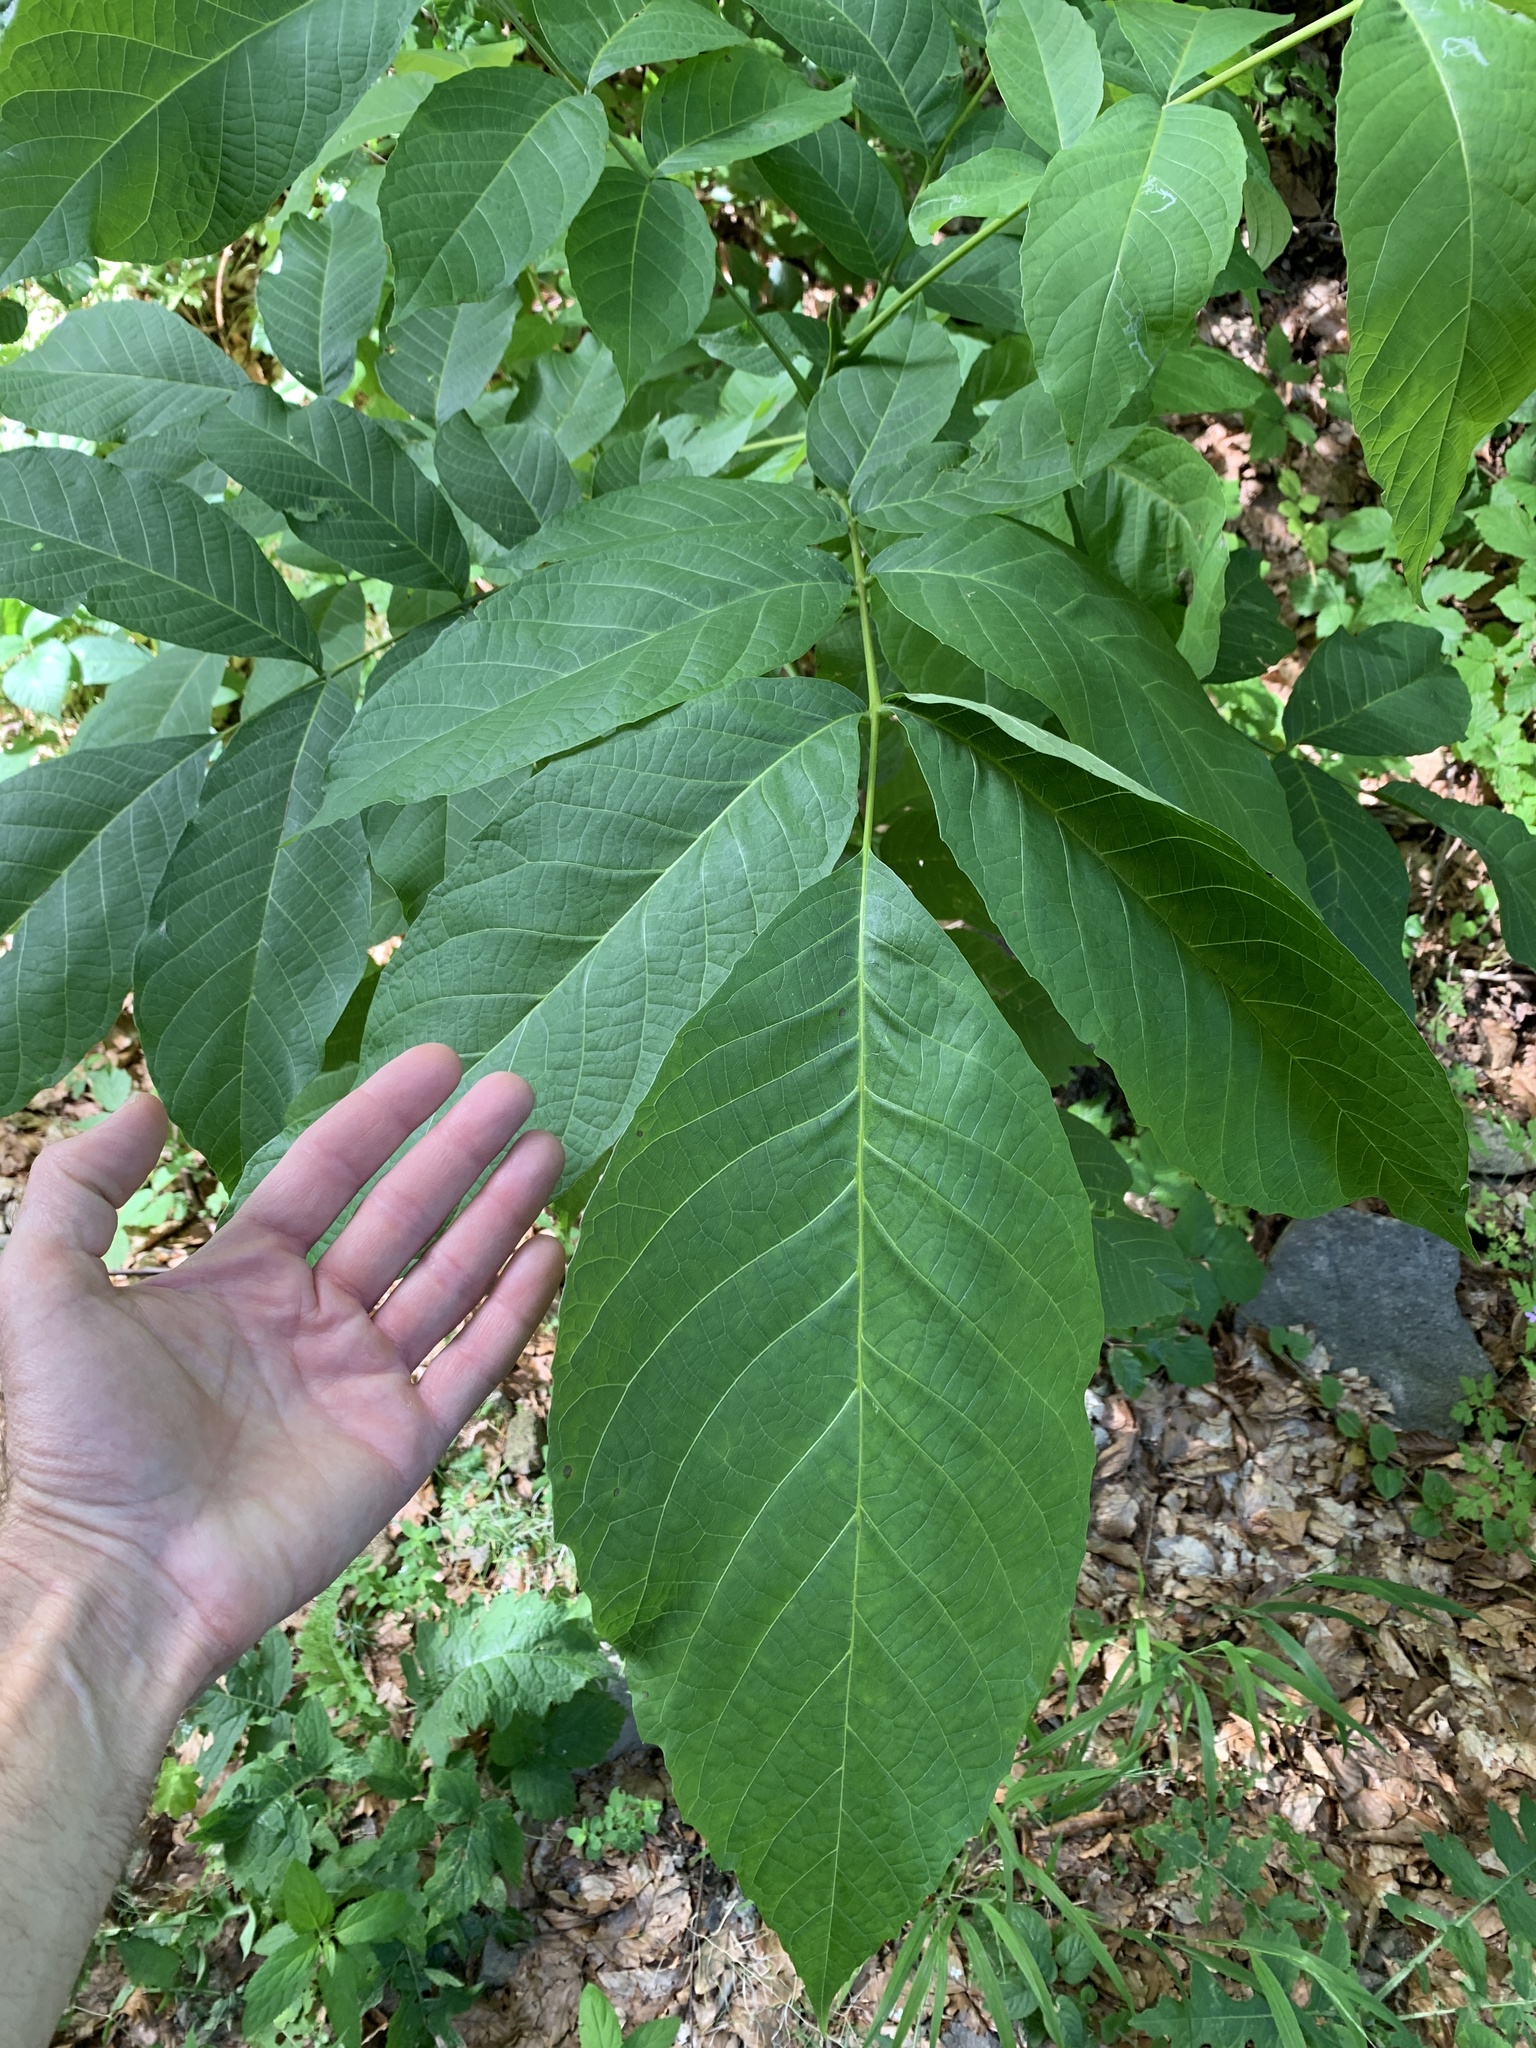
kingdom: Plantae
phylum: Tracheophyta
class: Magnoliopsida
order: Fagales
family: Juglandaceae
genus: Juglans
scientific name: Juglans regia
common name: Walnut
